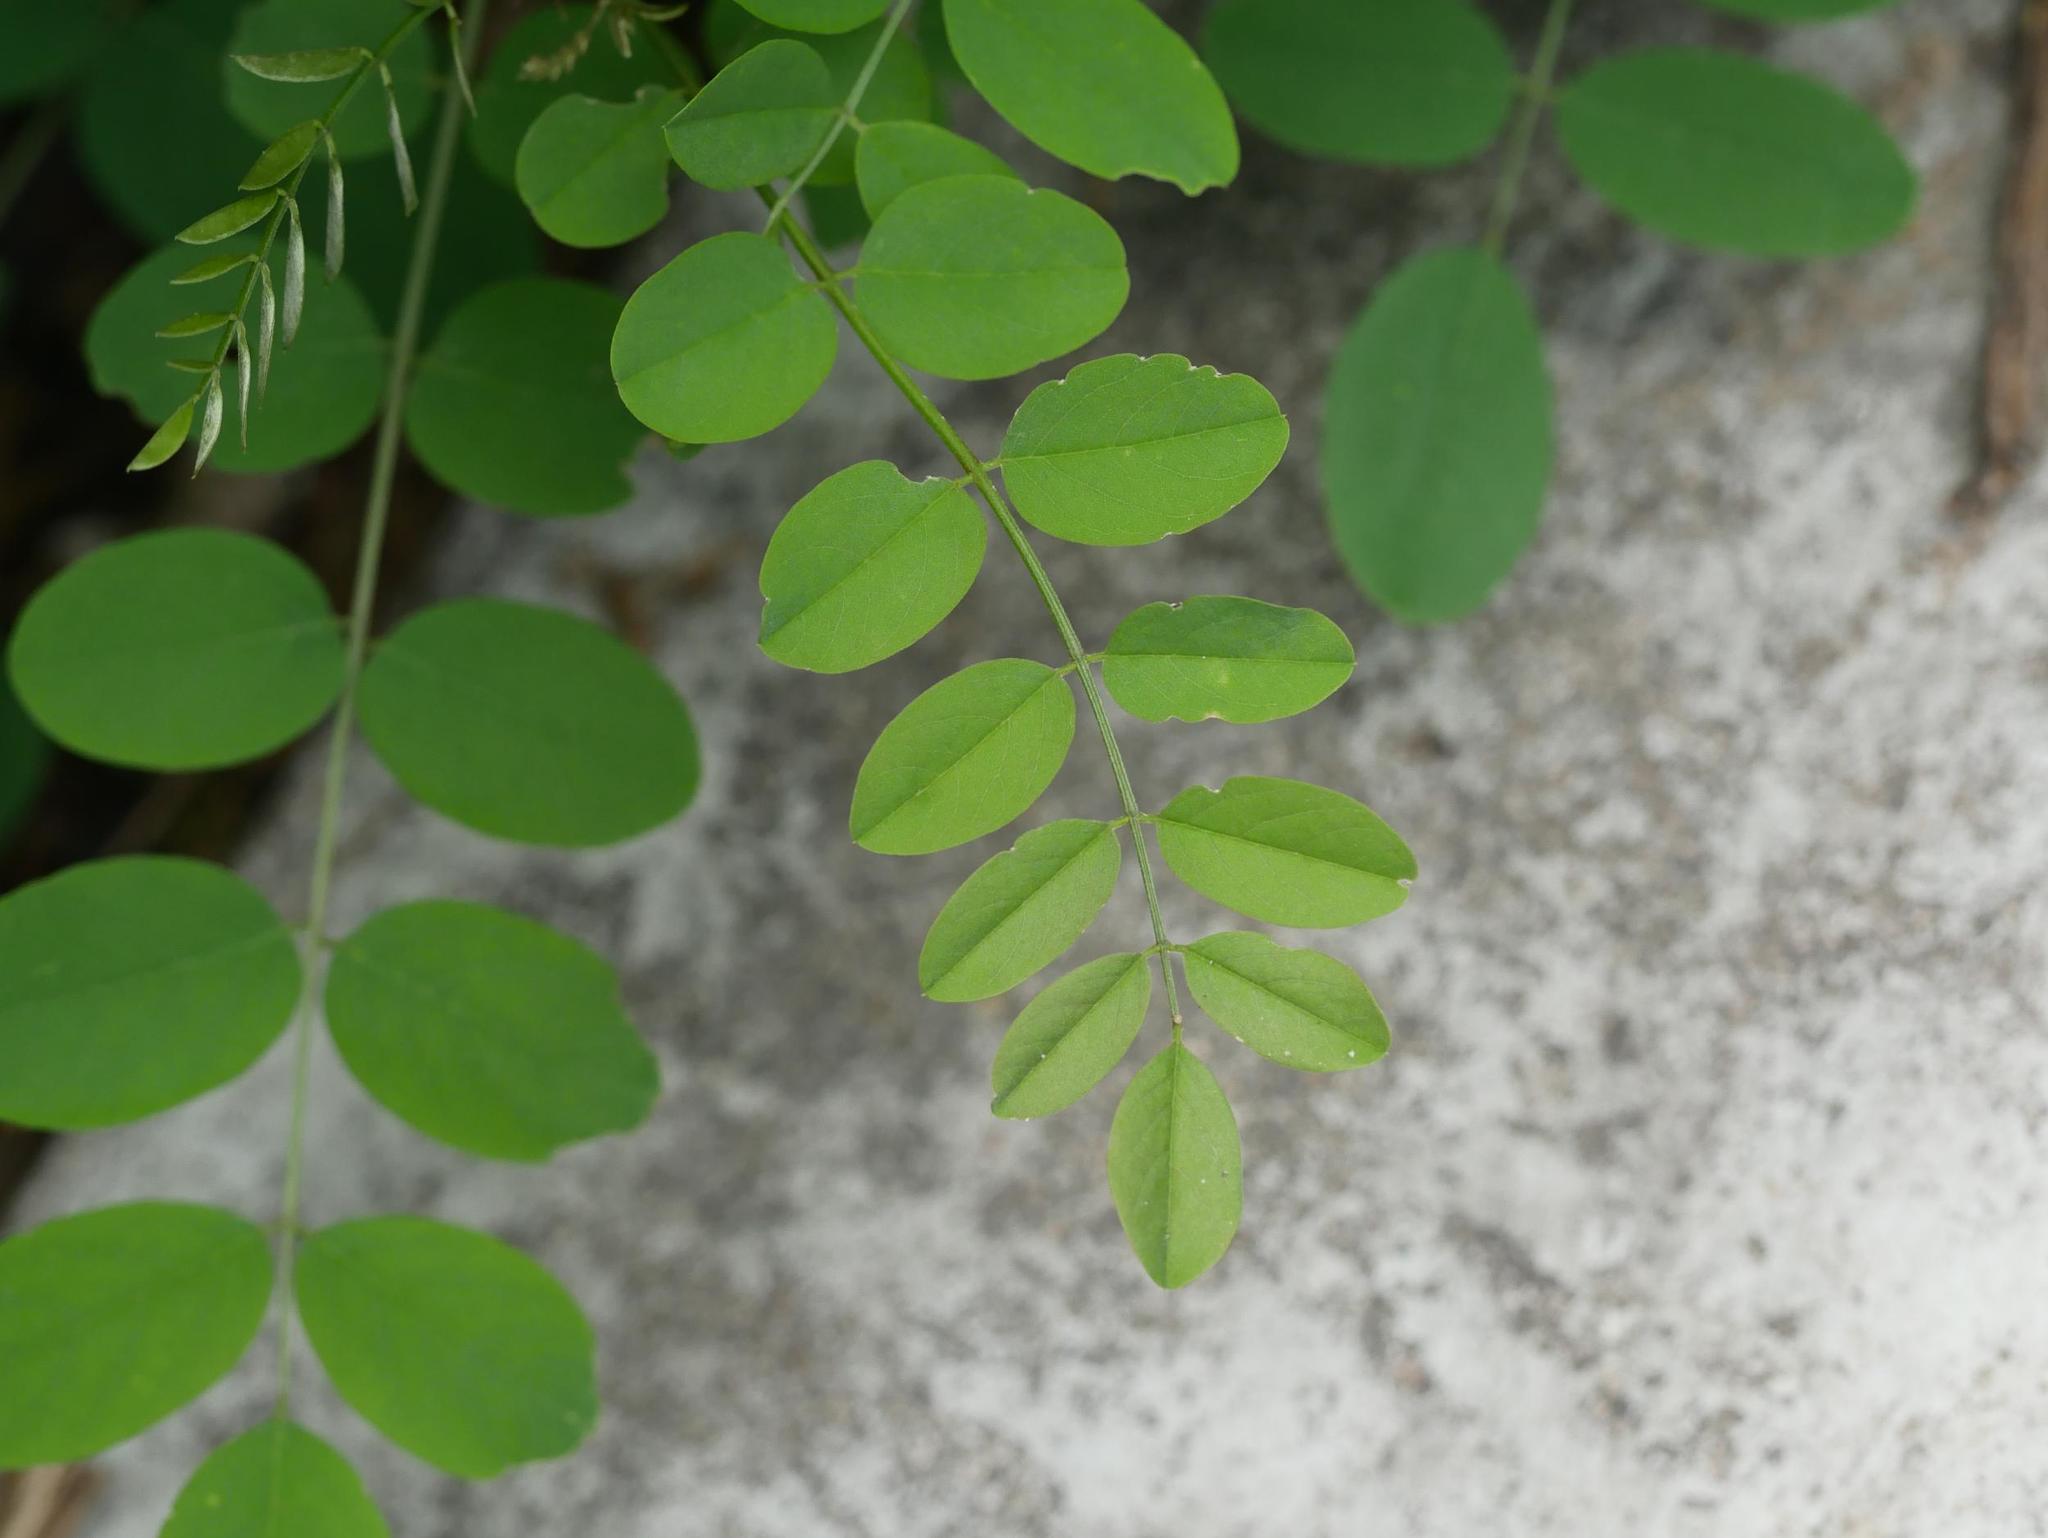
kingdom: Plantae
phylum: Tracheophyta
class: Magnoliopsida
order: Fabales
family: Fabaceae
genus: Robinia
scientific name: Robinia pseudoacacia
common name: Black locust
